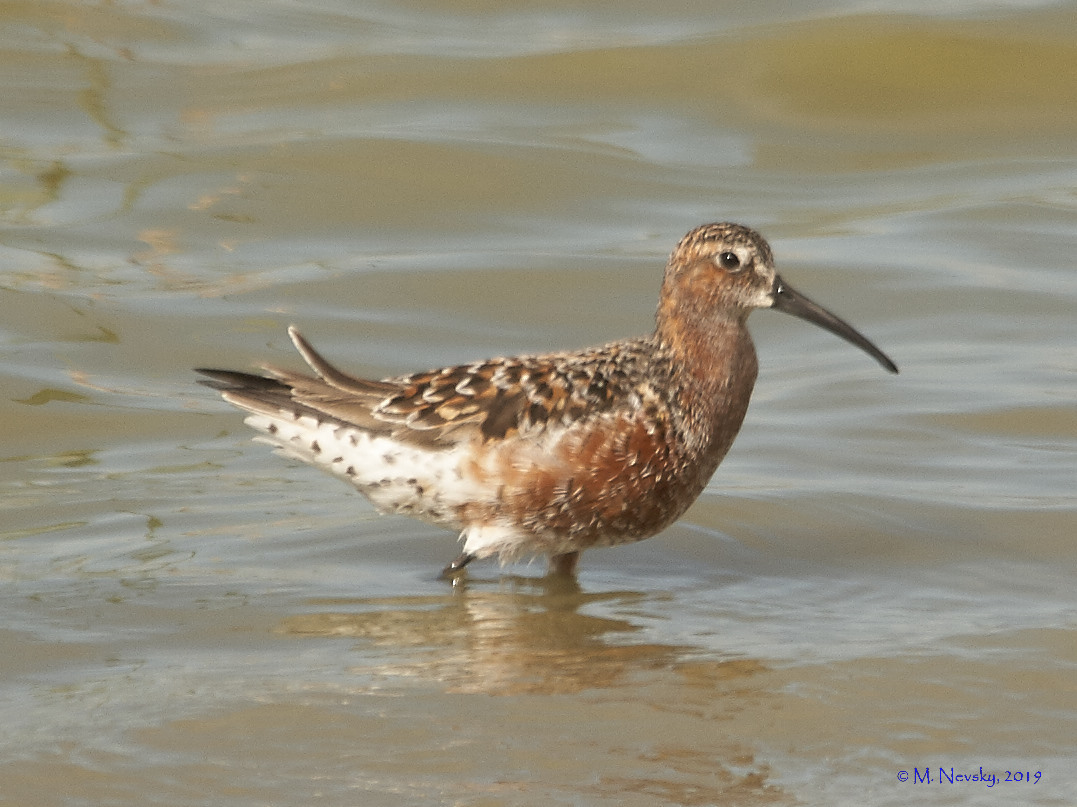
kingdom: Animalia
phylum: Chordata
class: Aves
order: Charadriiformes
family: Scolopacidae
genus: Calidris
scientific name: Calidris ferruginea
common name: Curlew sandpiper
